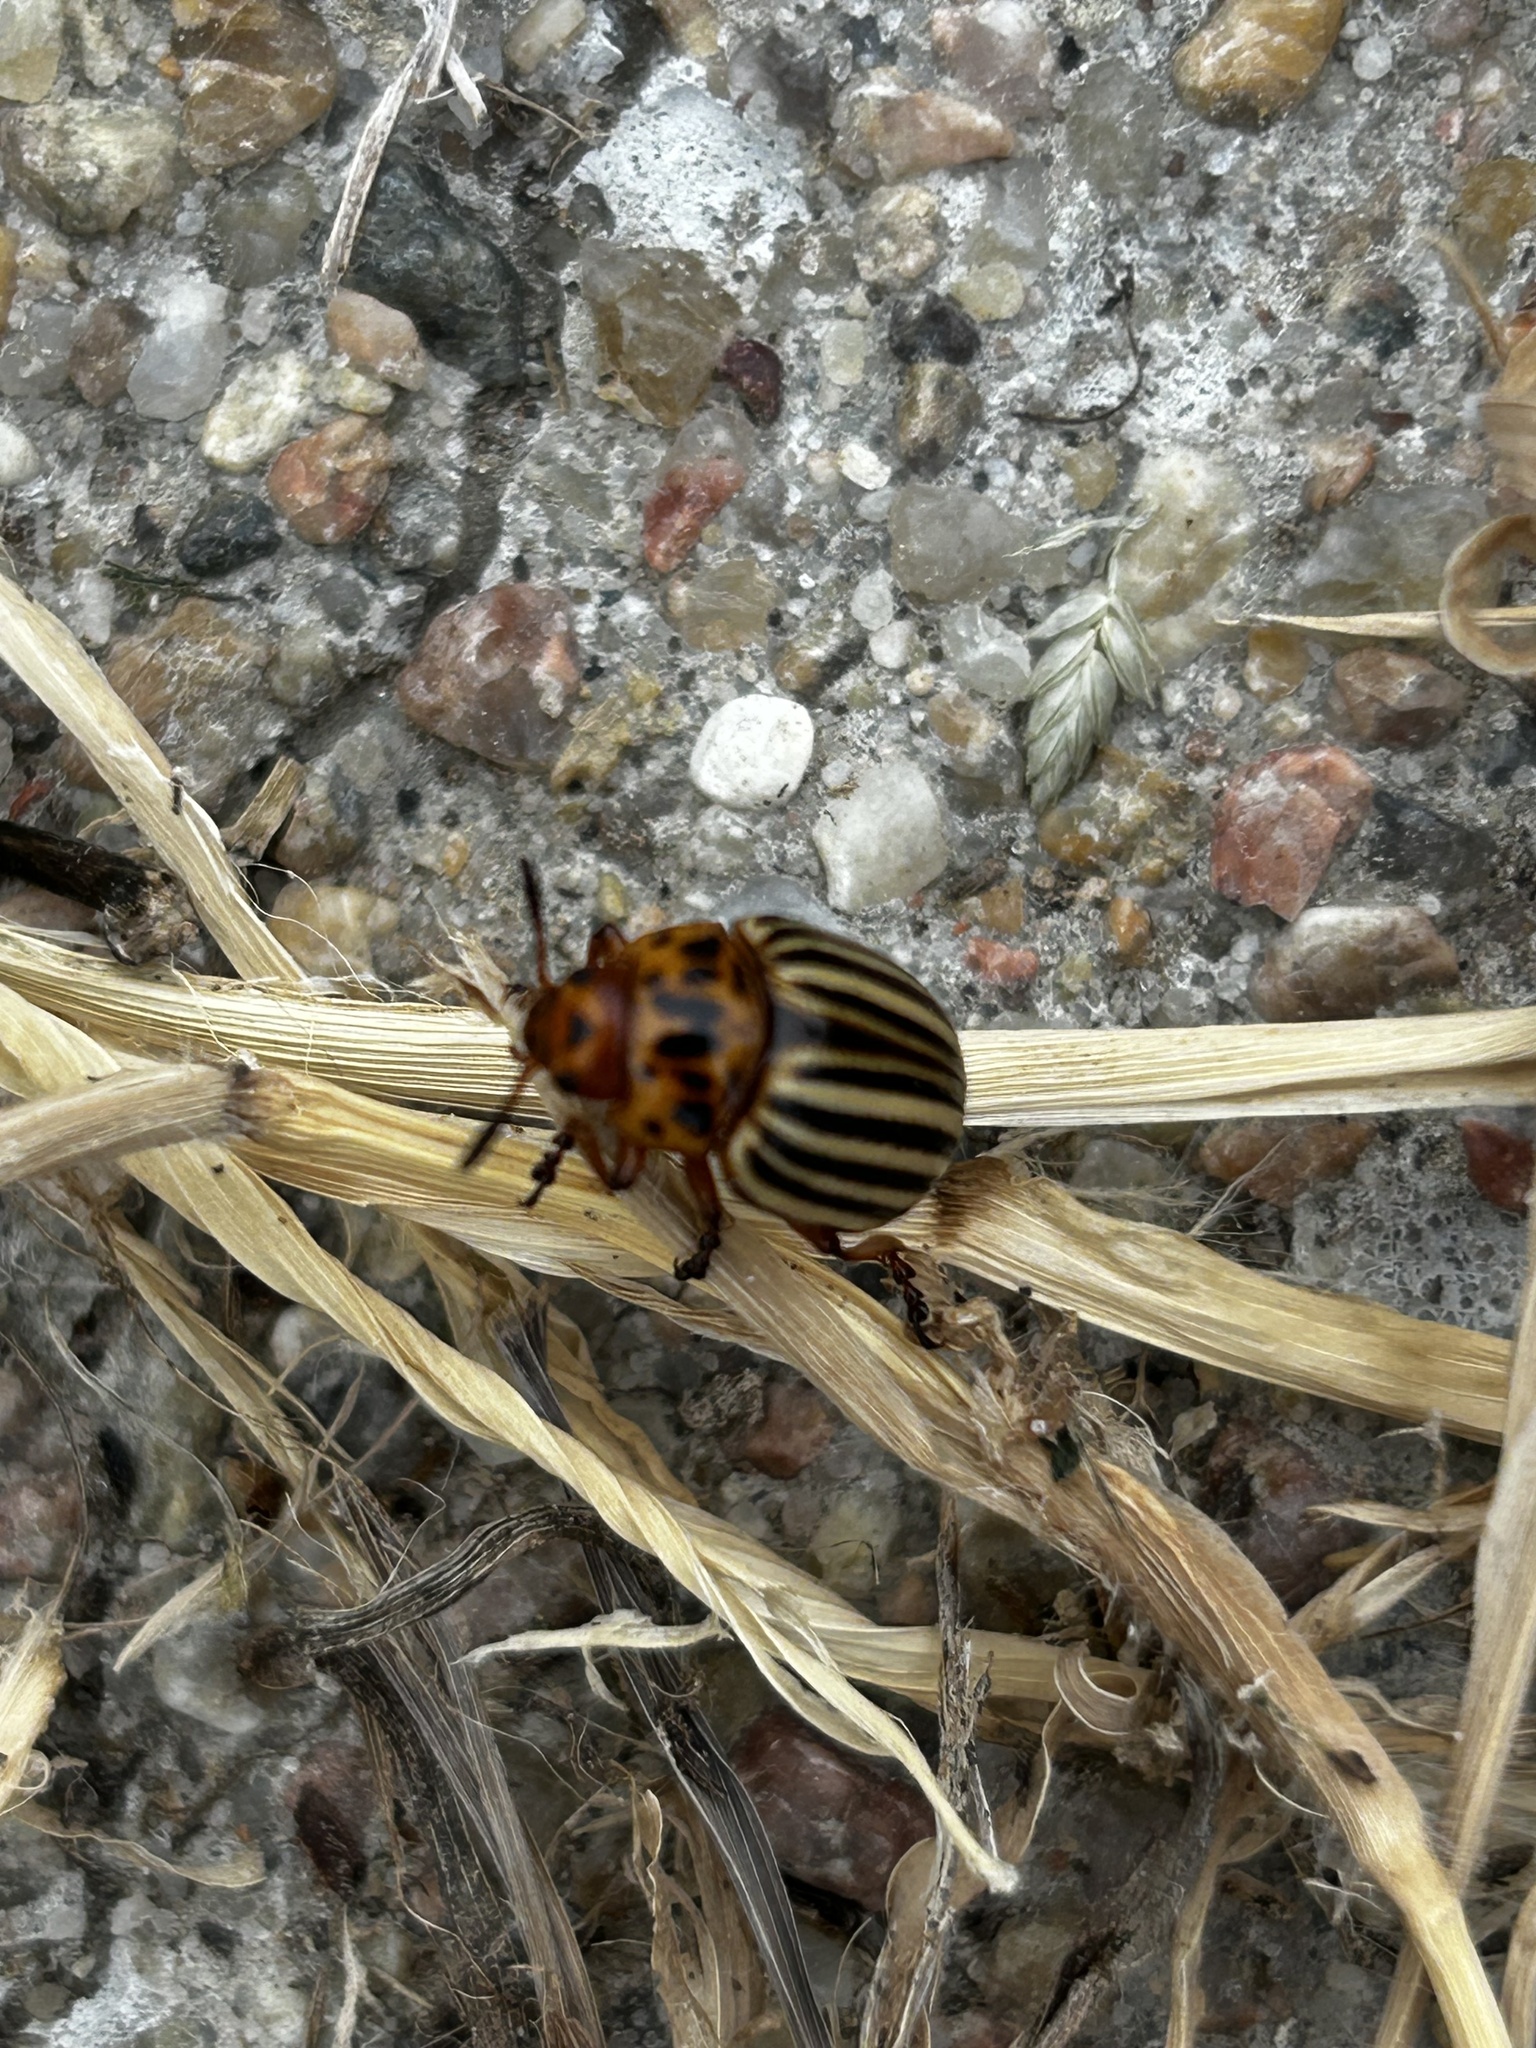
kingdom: Animalia
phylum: Arthropoda
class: Insecta
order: Coleoptera
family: Chrysomelidae
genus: Leptinotarsa
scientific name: Leptinotarsa decemlineata
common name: Colorado potato beetle
